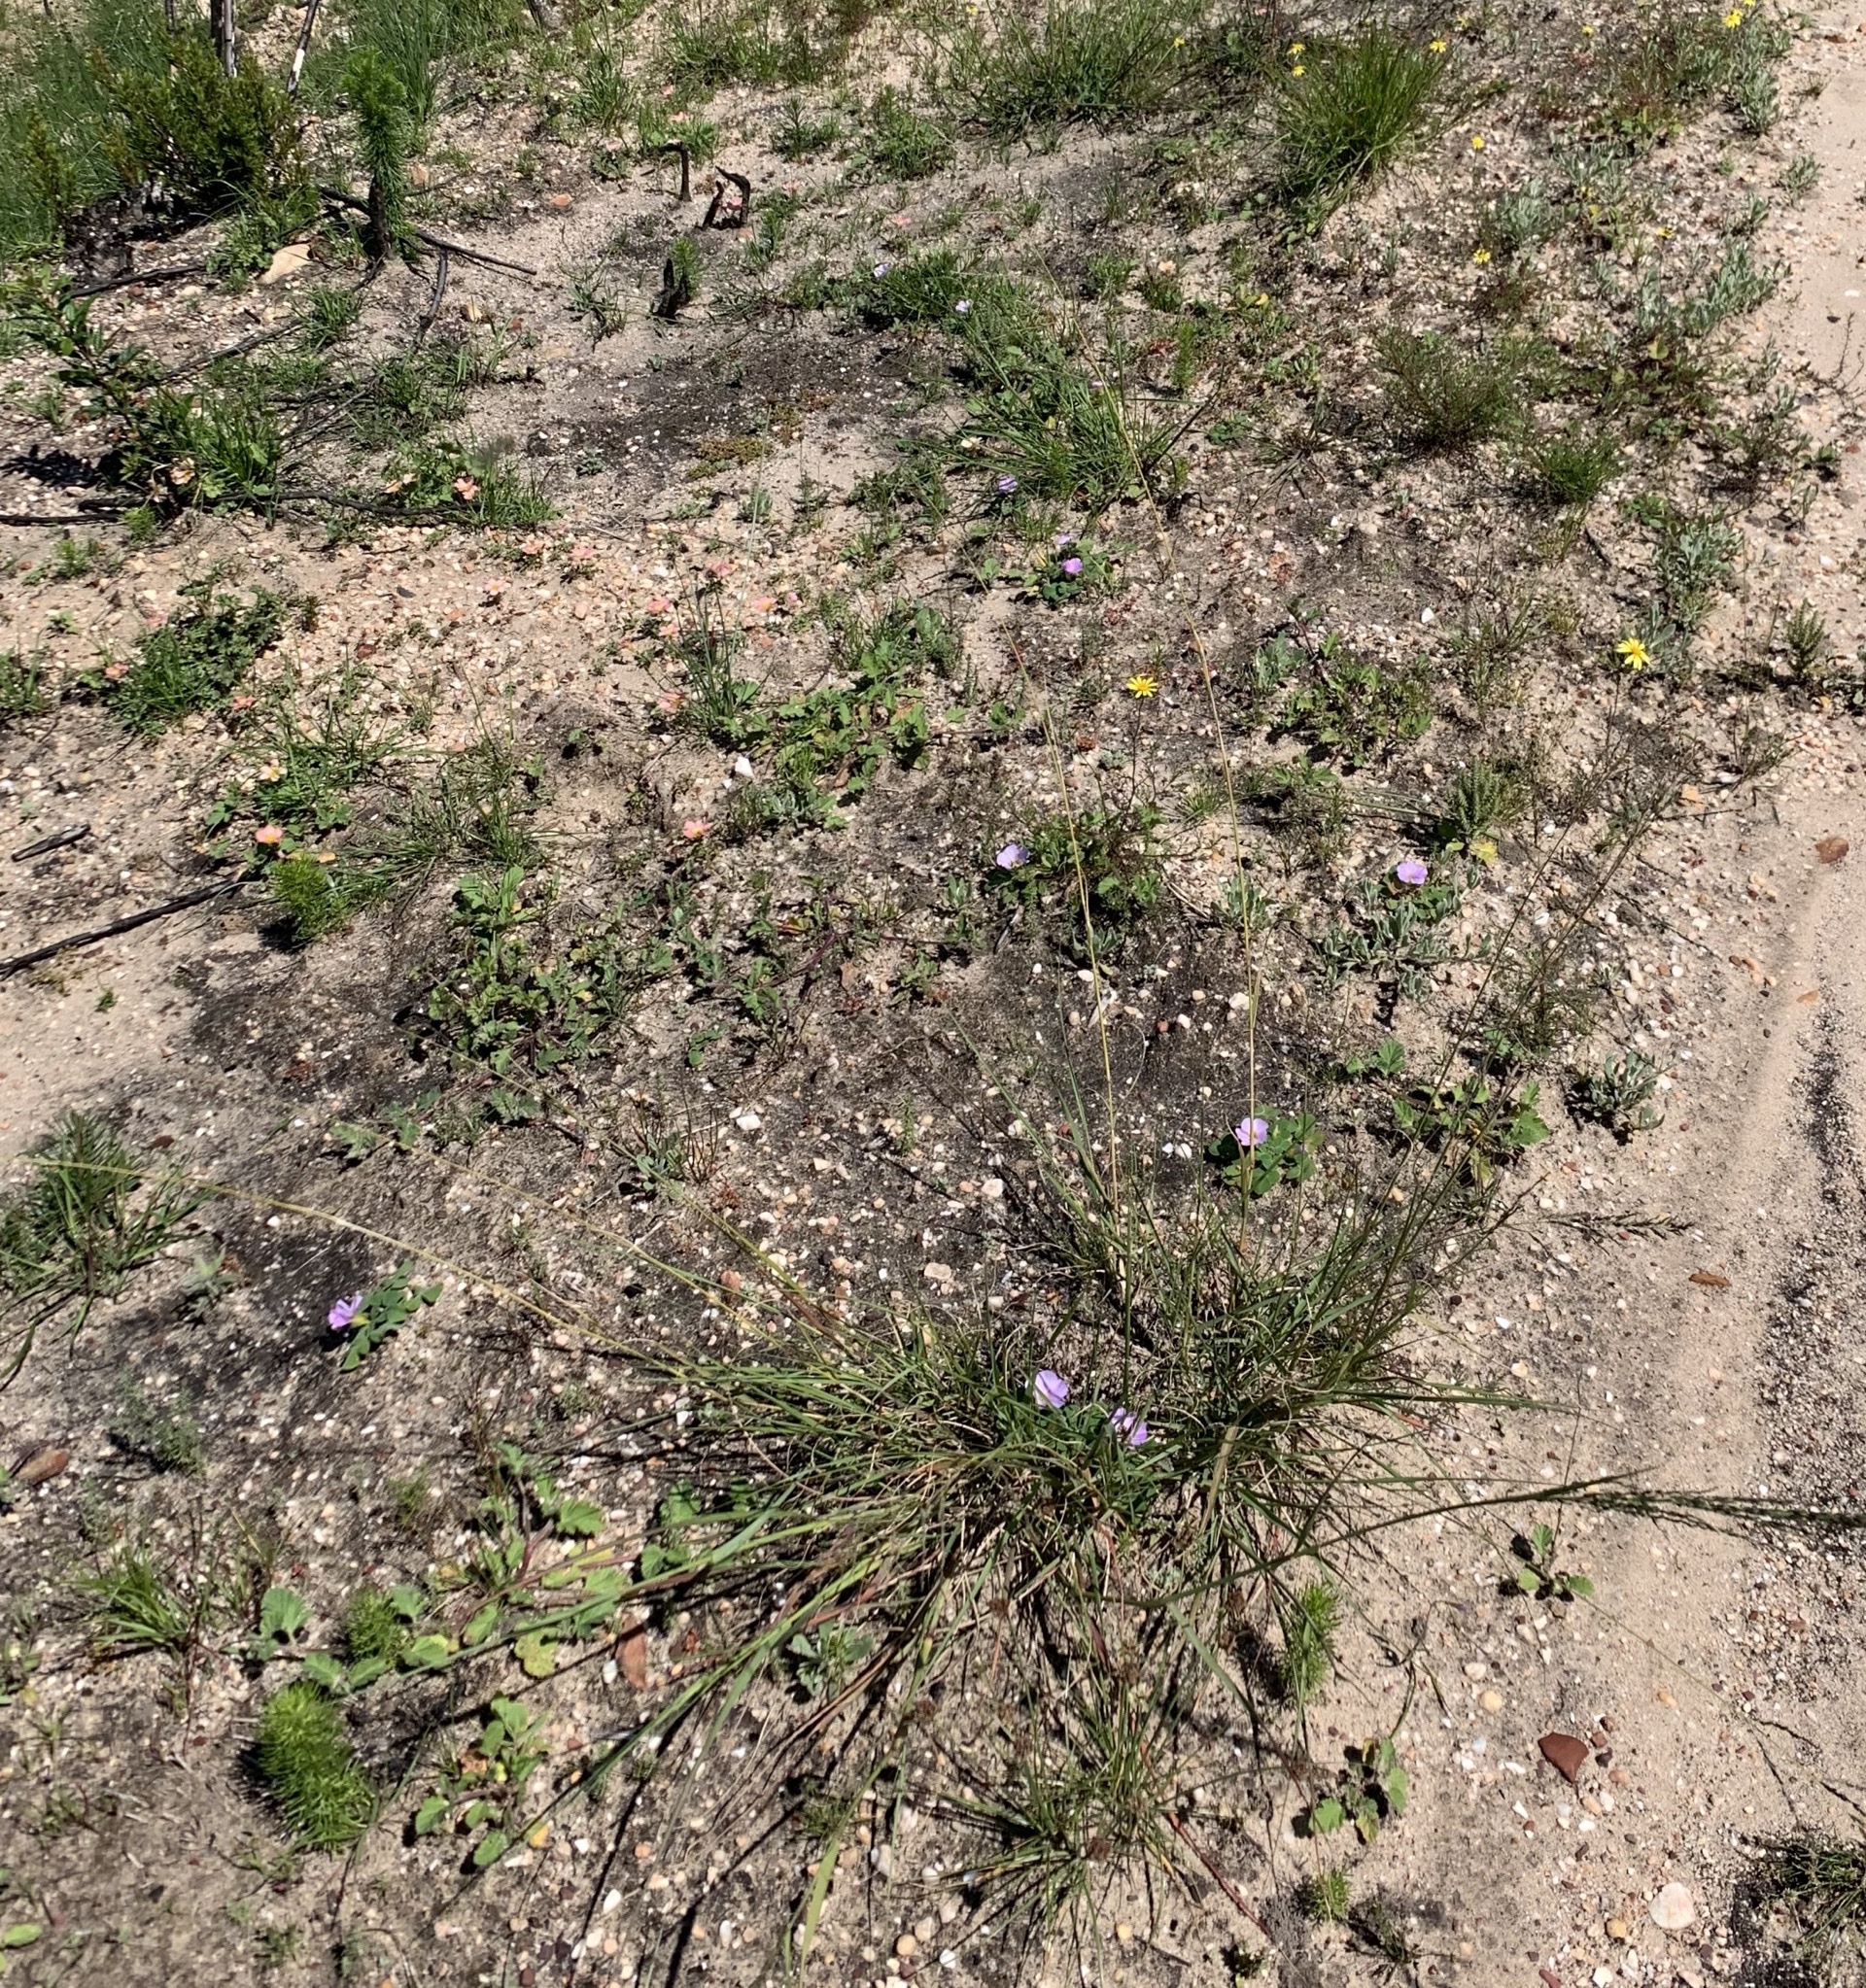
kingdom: Plantae
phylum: Tracheophyta
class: Liliopsida
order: Poales
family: Poaceae
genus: Eragrostis
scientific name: Eragrostis curvula
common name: African love-grass
